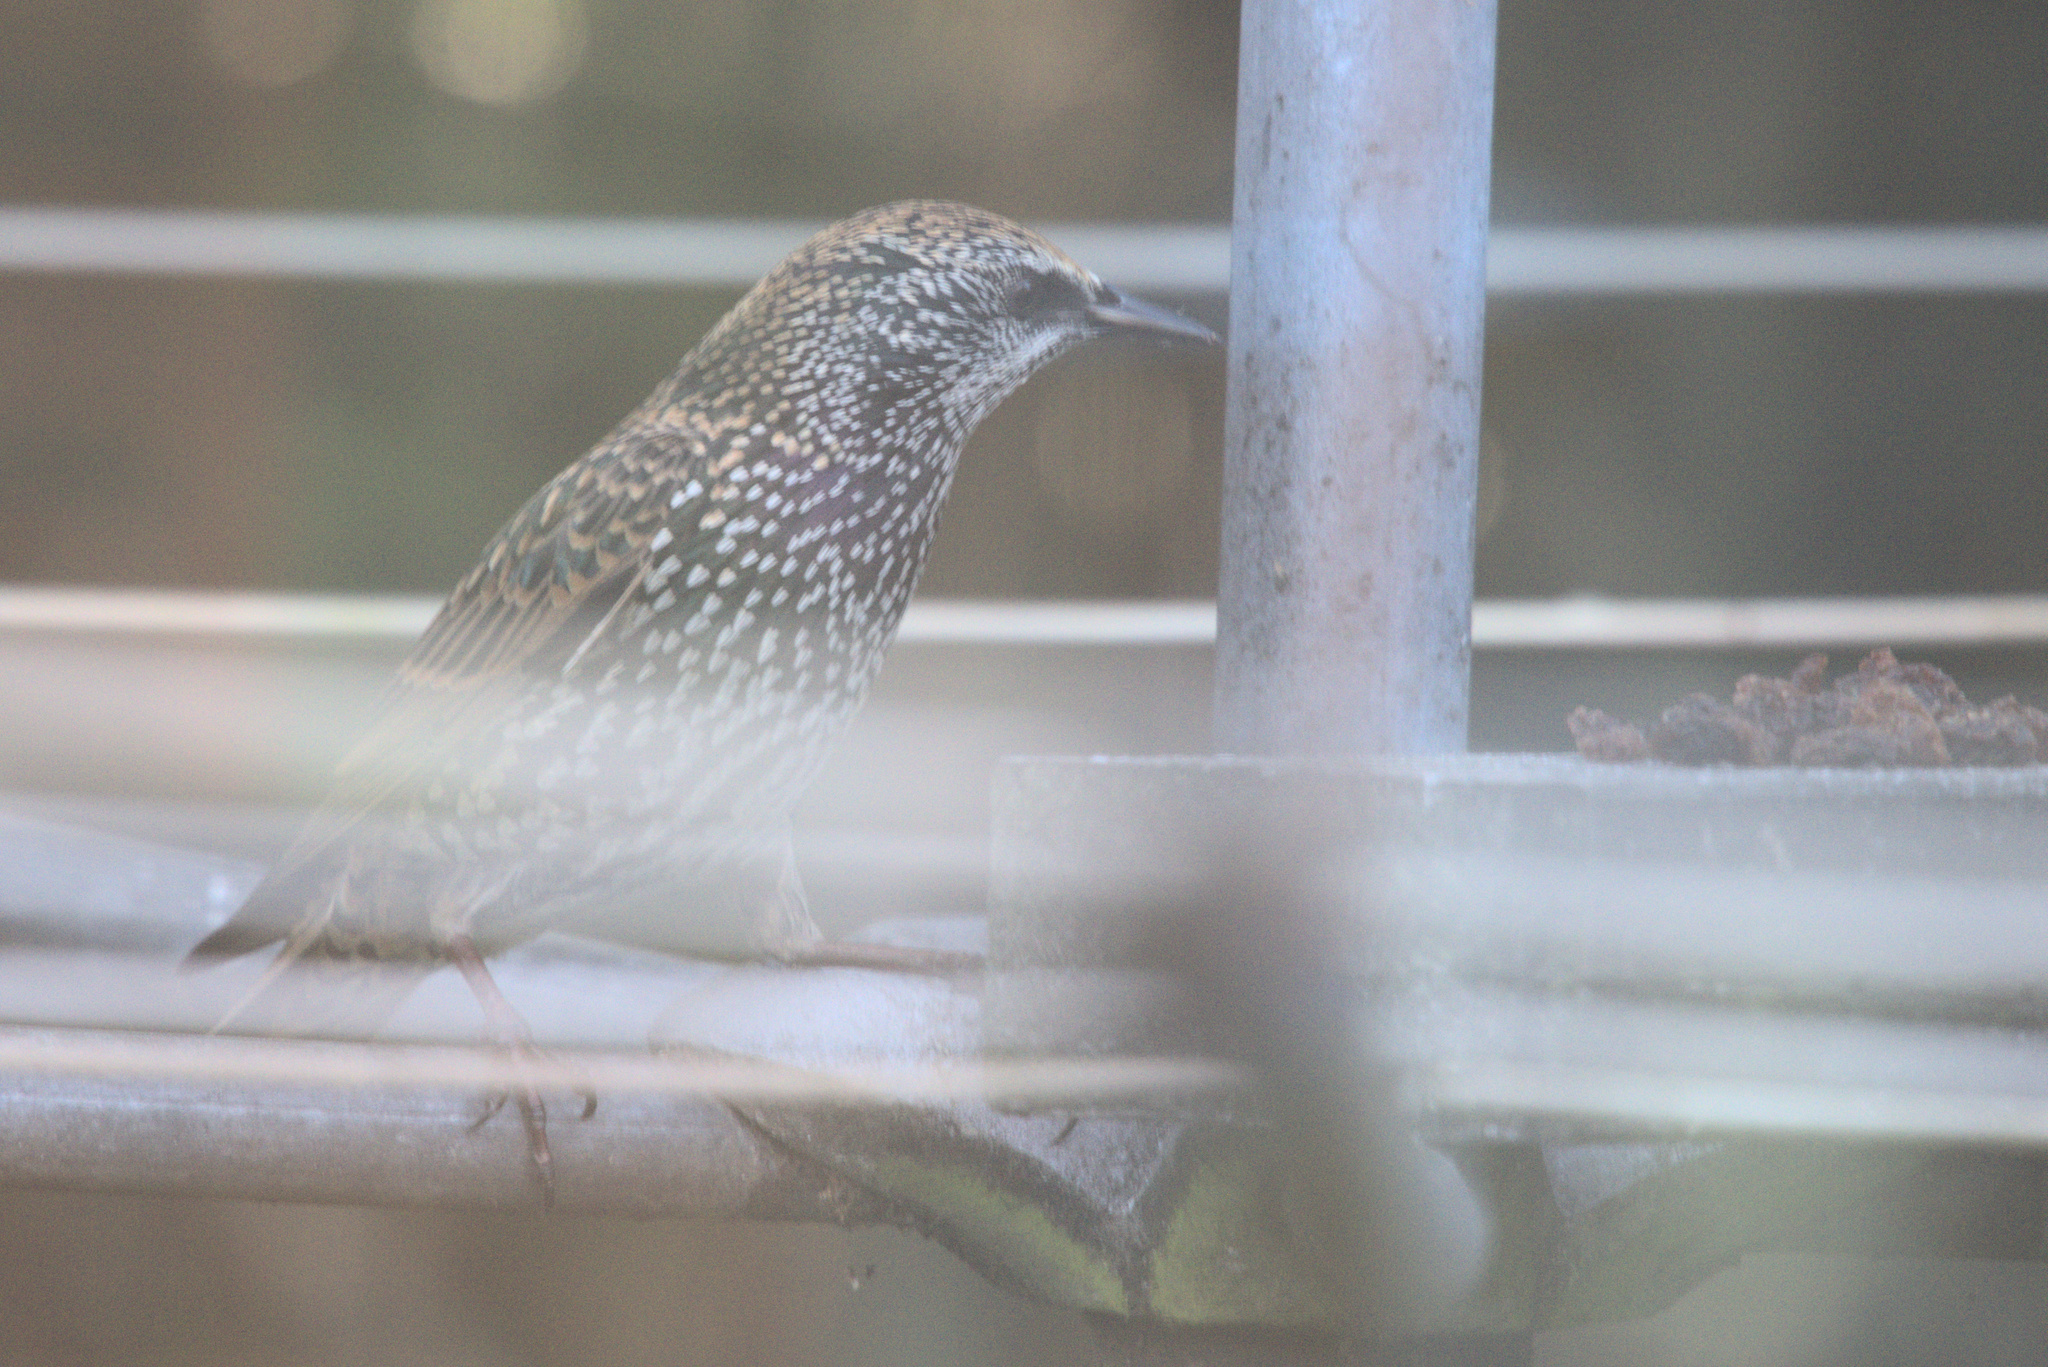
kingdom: Animalia
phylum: Chordata
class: Aves
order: Passeriformes
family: Sturnidae
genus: Sturnus
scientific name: Sturnus vulgaris
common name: Common starling
